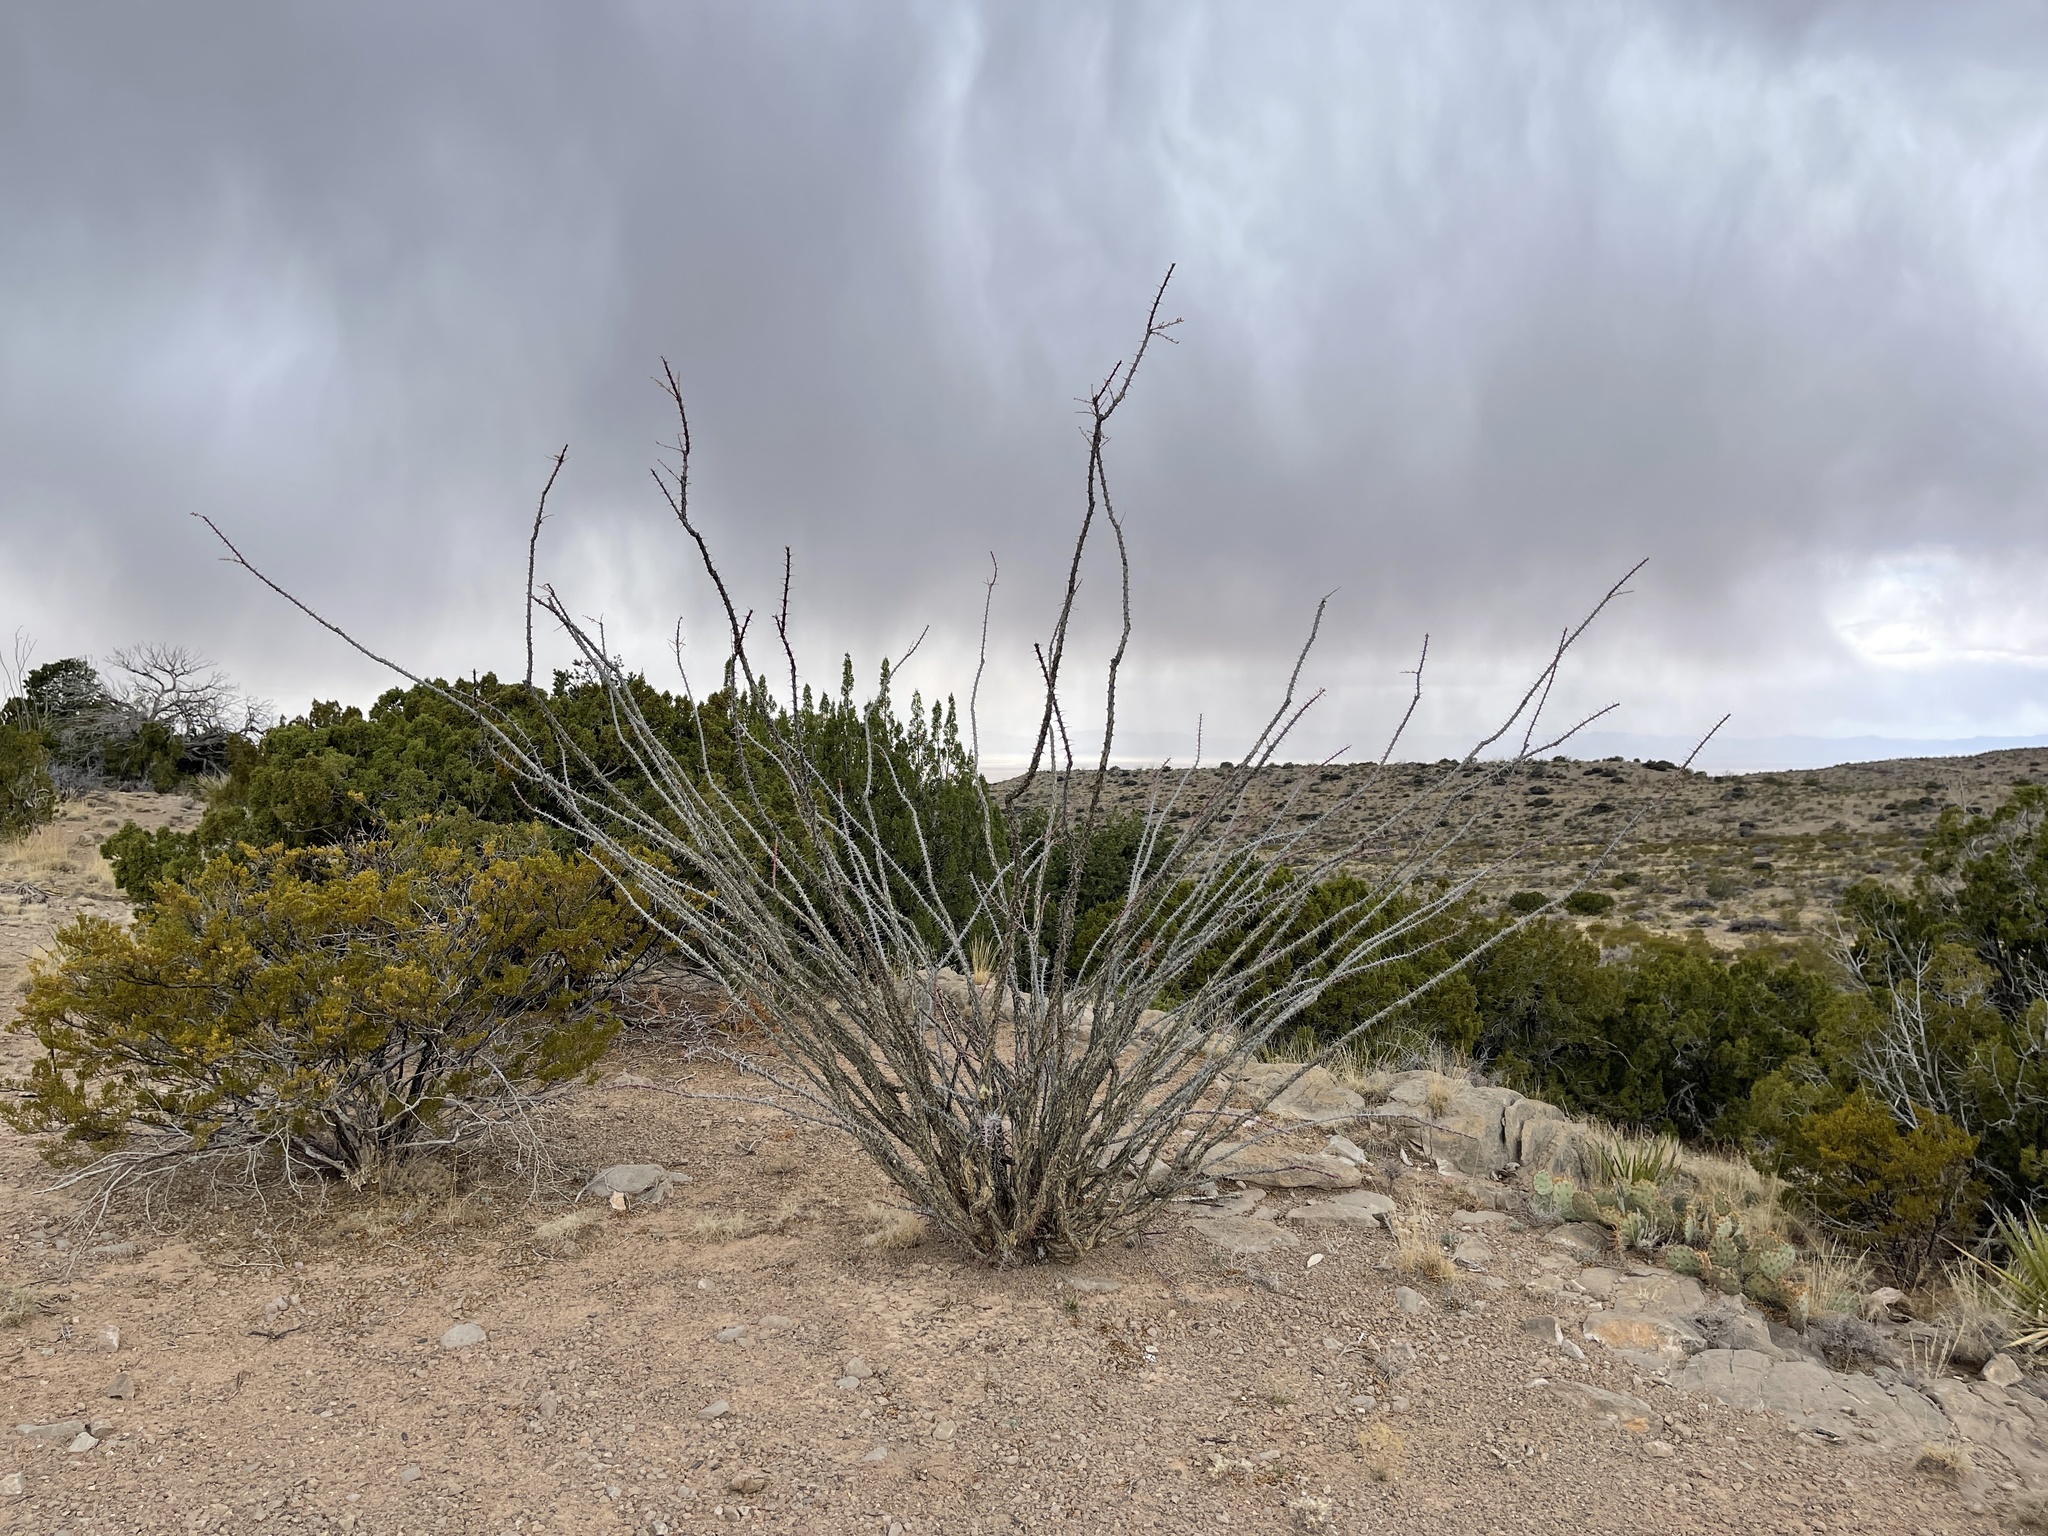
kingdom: Plantae
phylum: Tracheophyta
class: Magnoliopsida
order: Ericales
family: Fouquieriaceae
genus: Fouquieria
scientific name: Fouquieria splendens
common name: Vine-cactus
